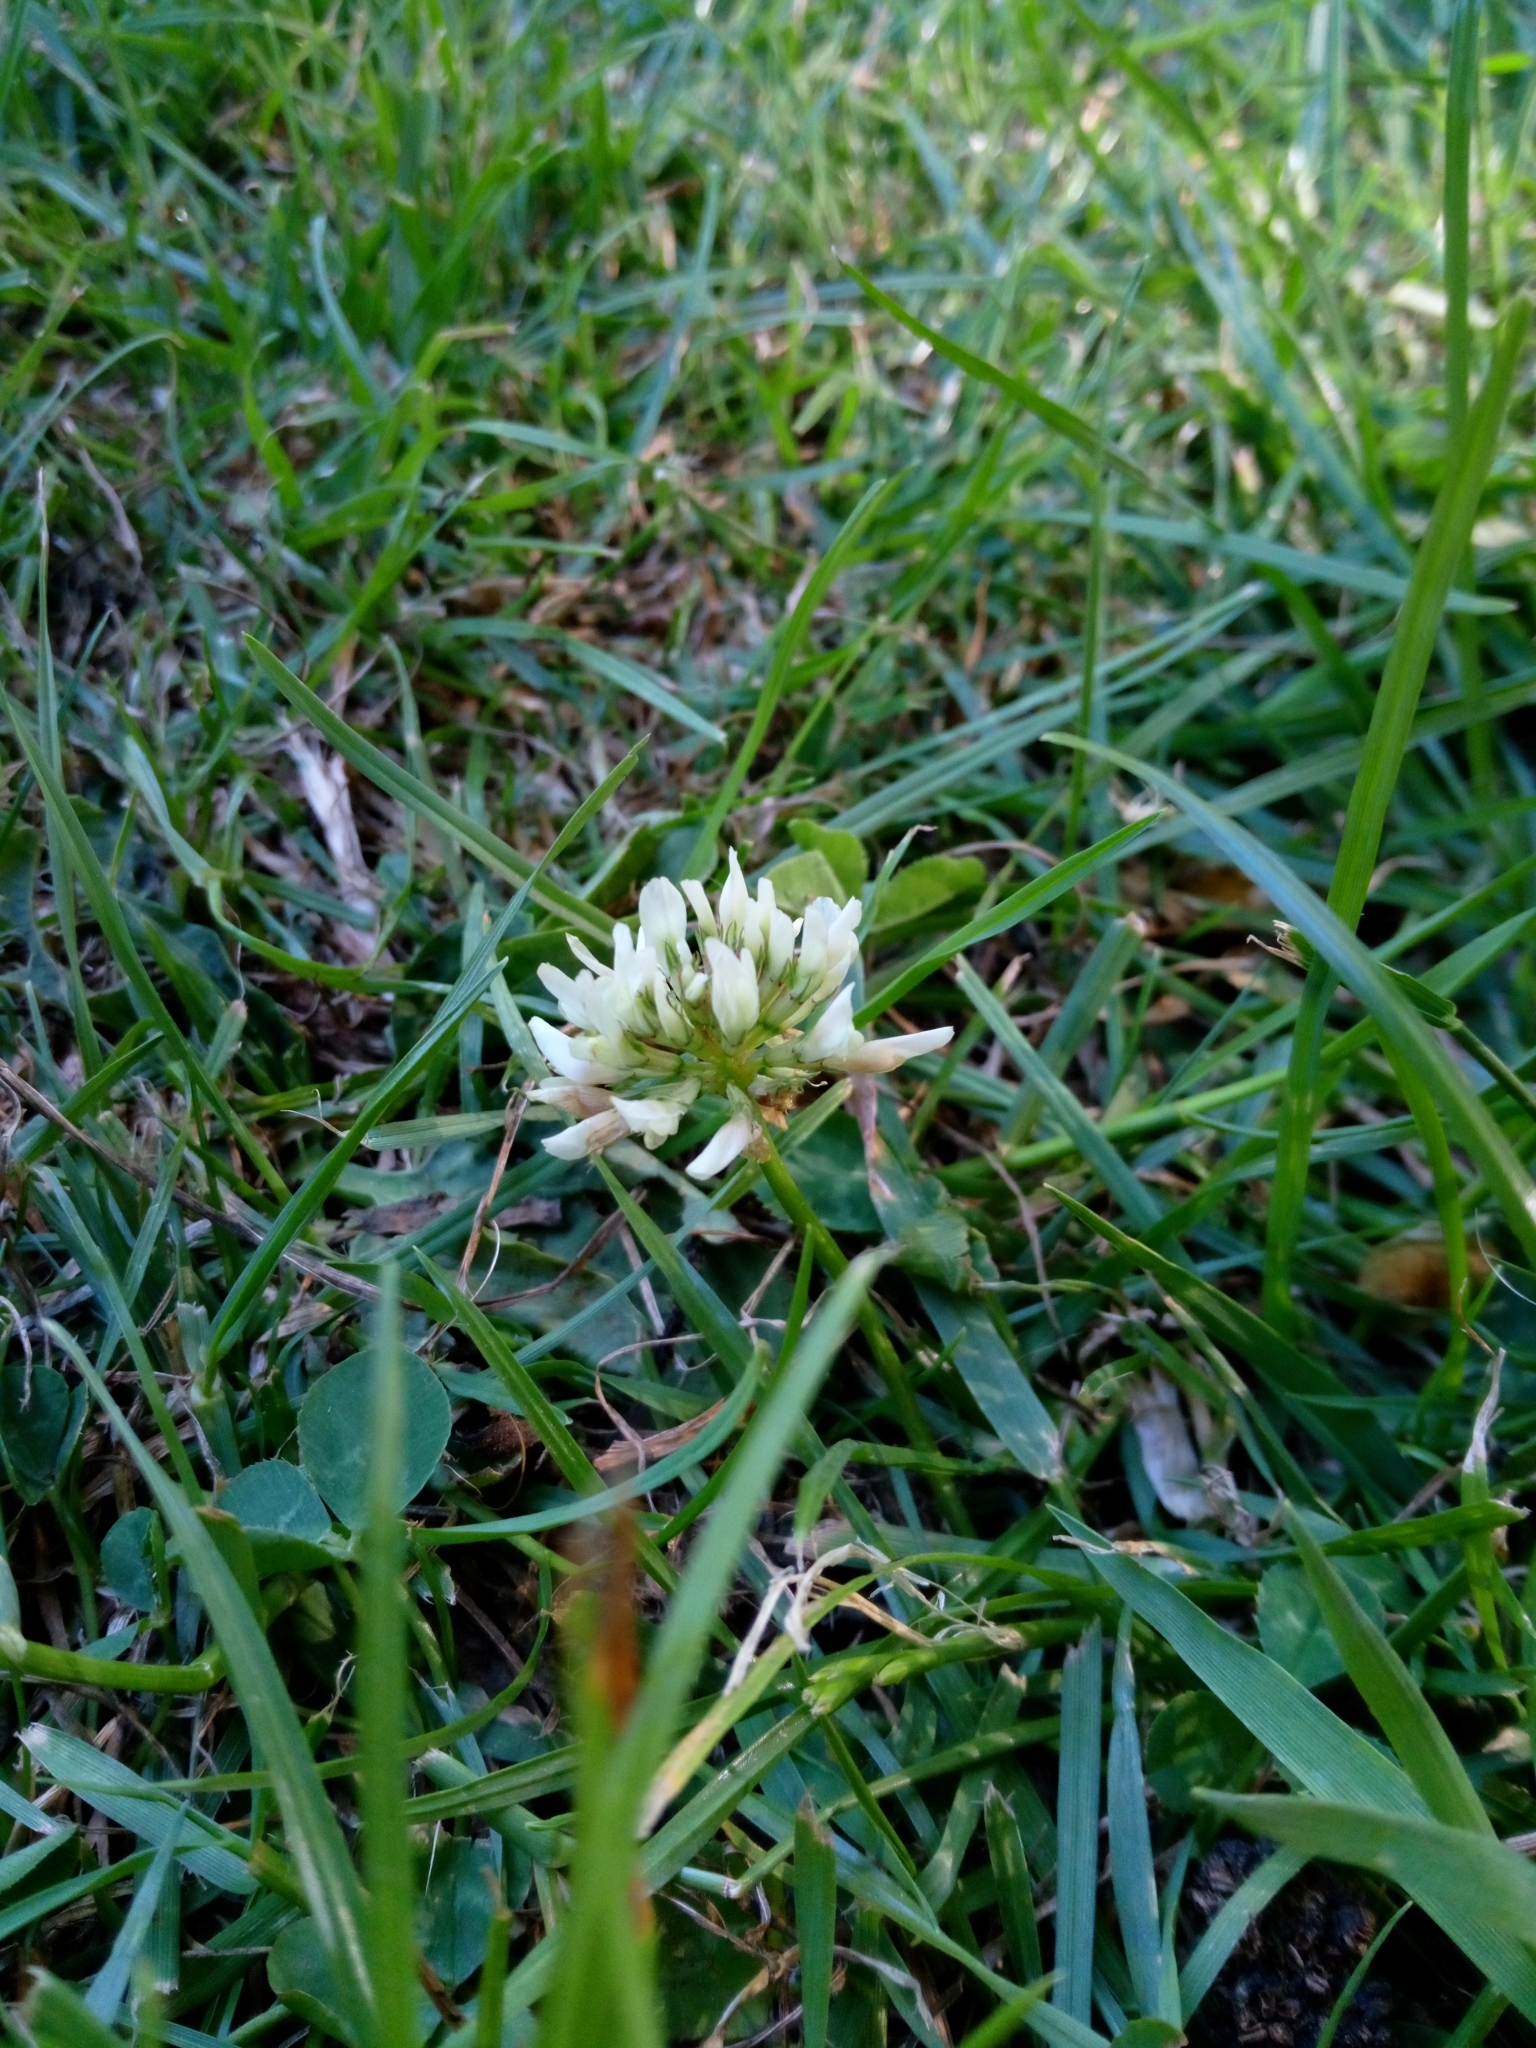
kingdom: Plantae
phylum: Tracheophyta
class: Magnoliopsida
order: Fabales
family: Fabaceae
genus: Trifolium
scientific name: Trifolium repens
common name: White clover
